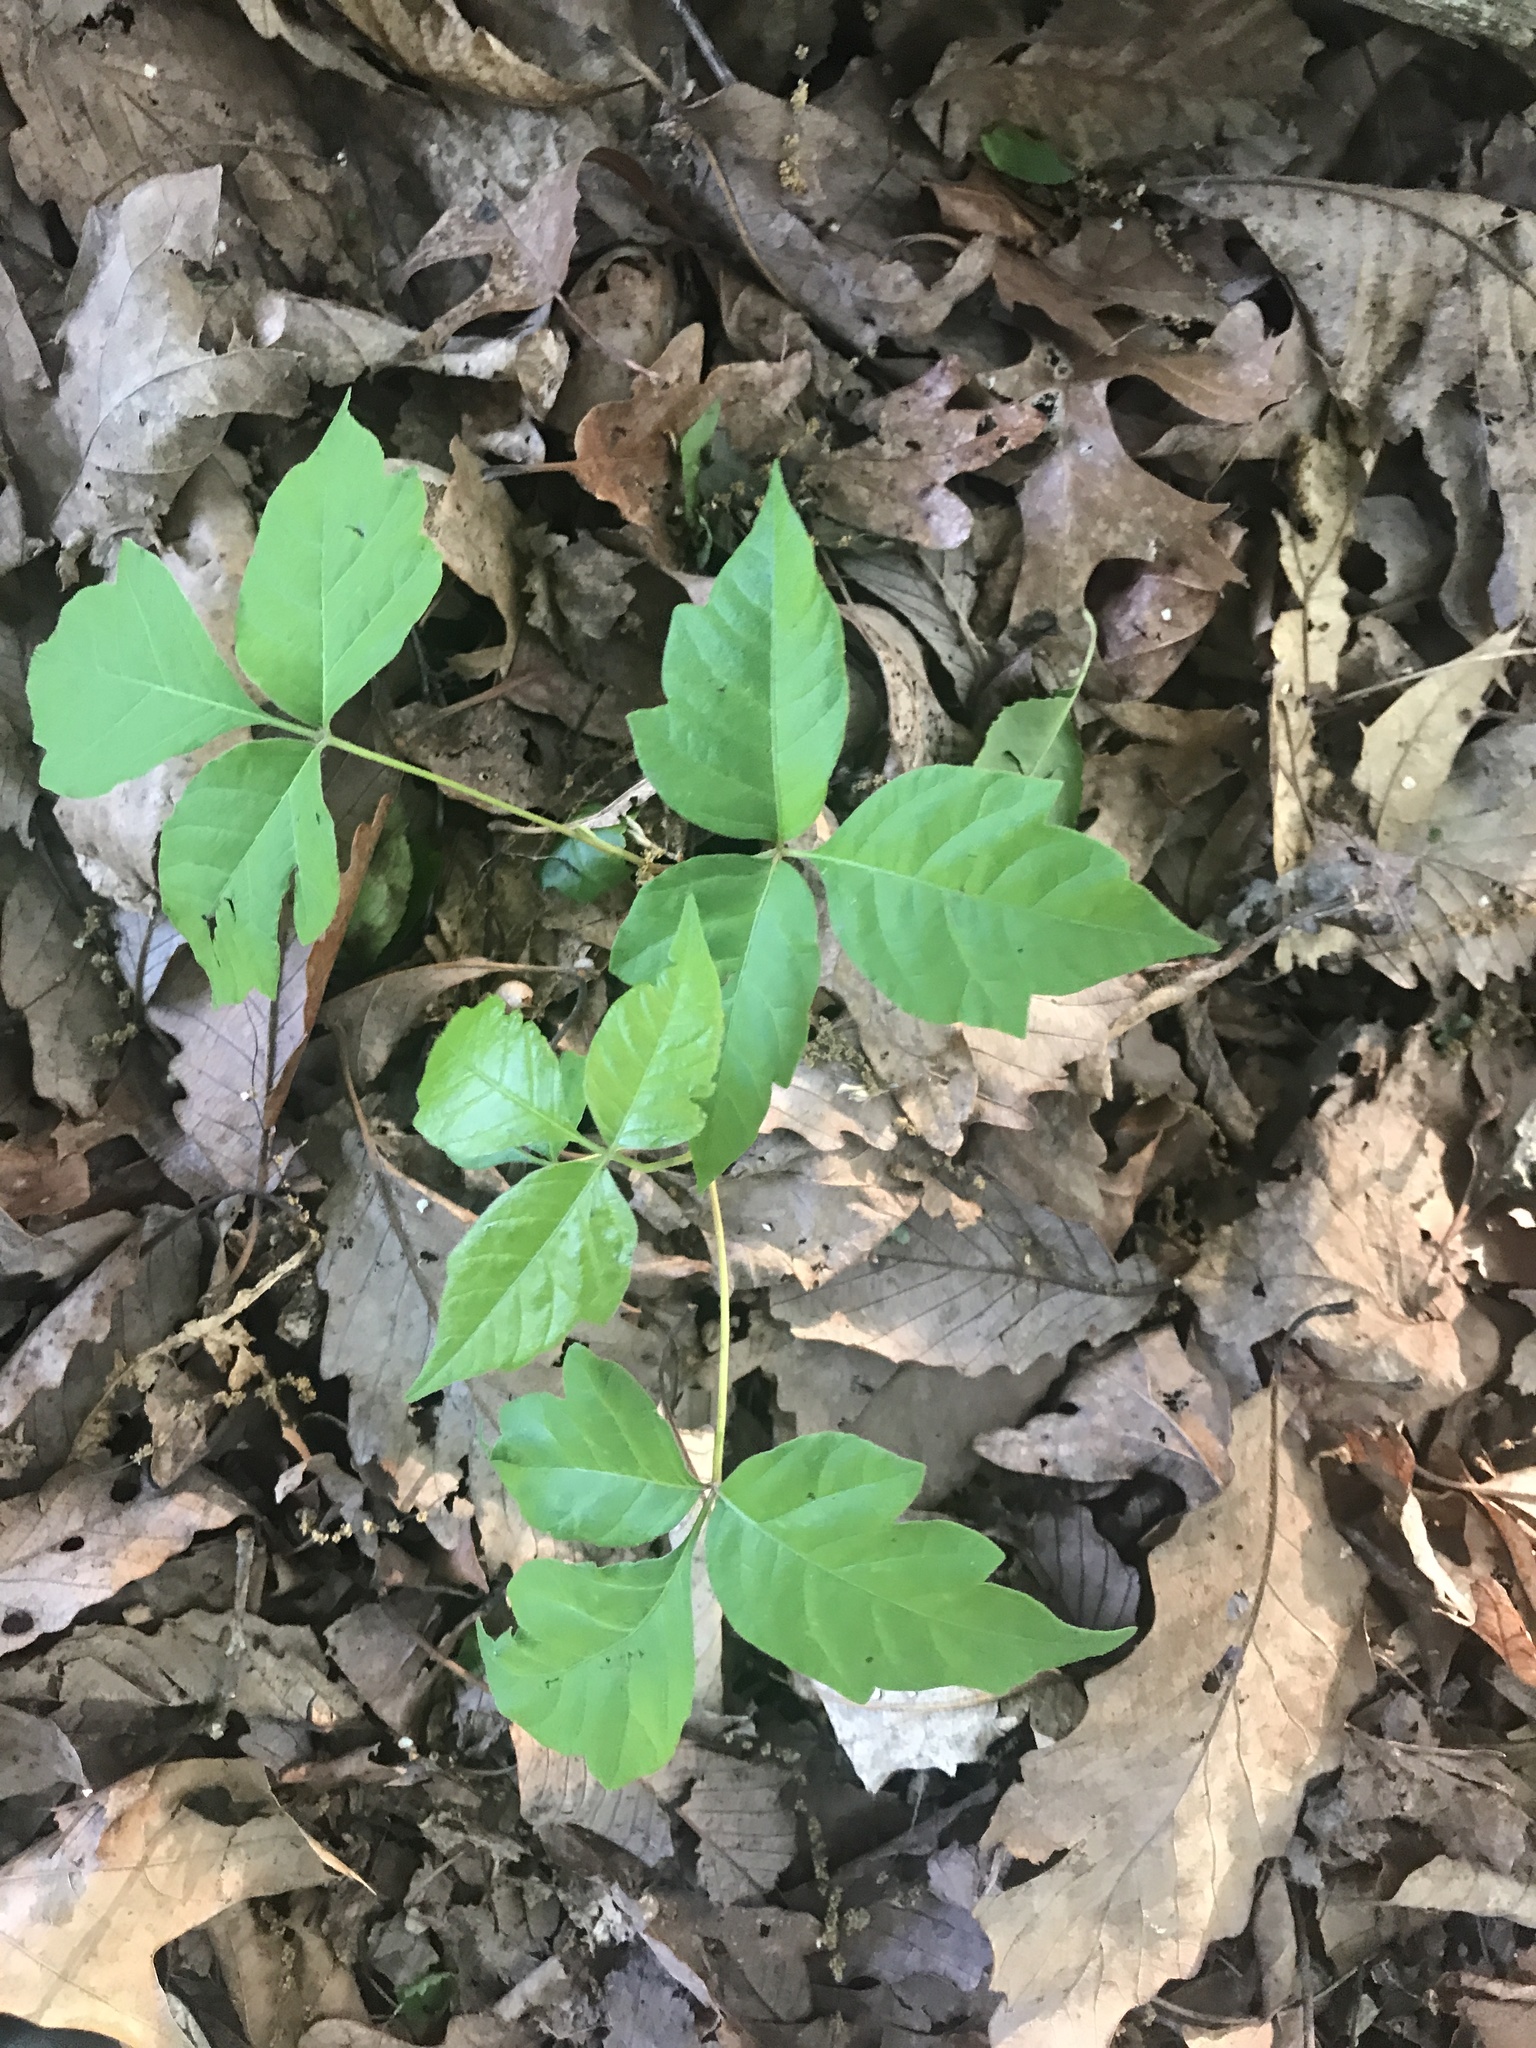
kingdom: Plantae
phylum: Tracheophyta
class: Magnoliopsida
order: Sapindales
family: Anacardiaceae
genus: Toxicodendron
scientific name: Toxicodendron radicans
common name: Poison ivy
